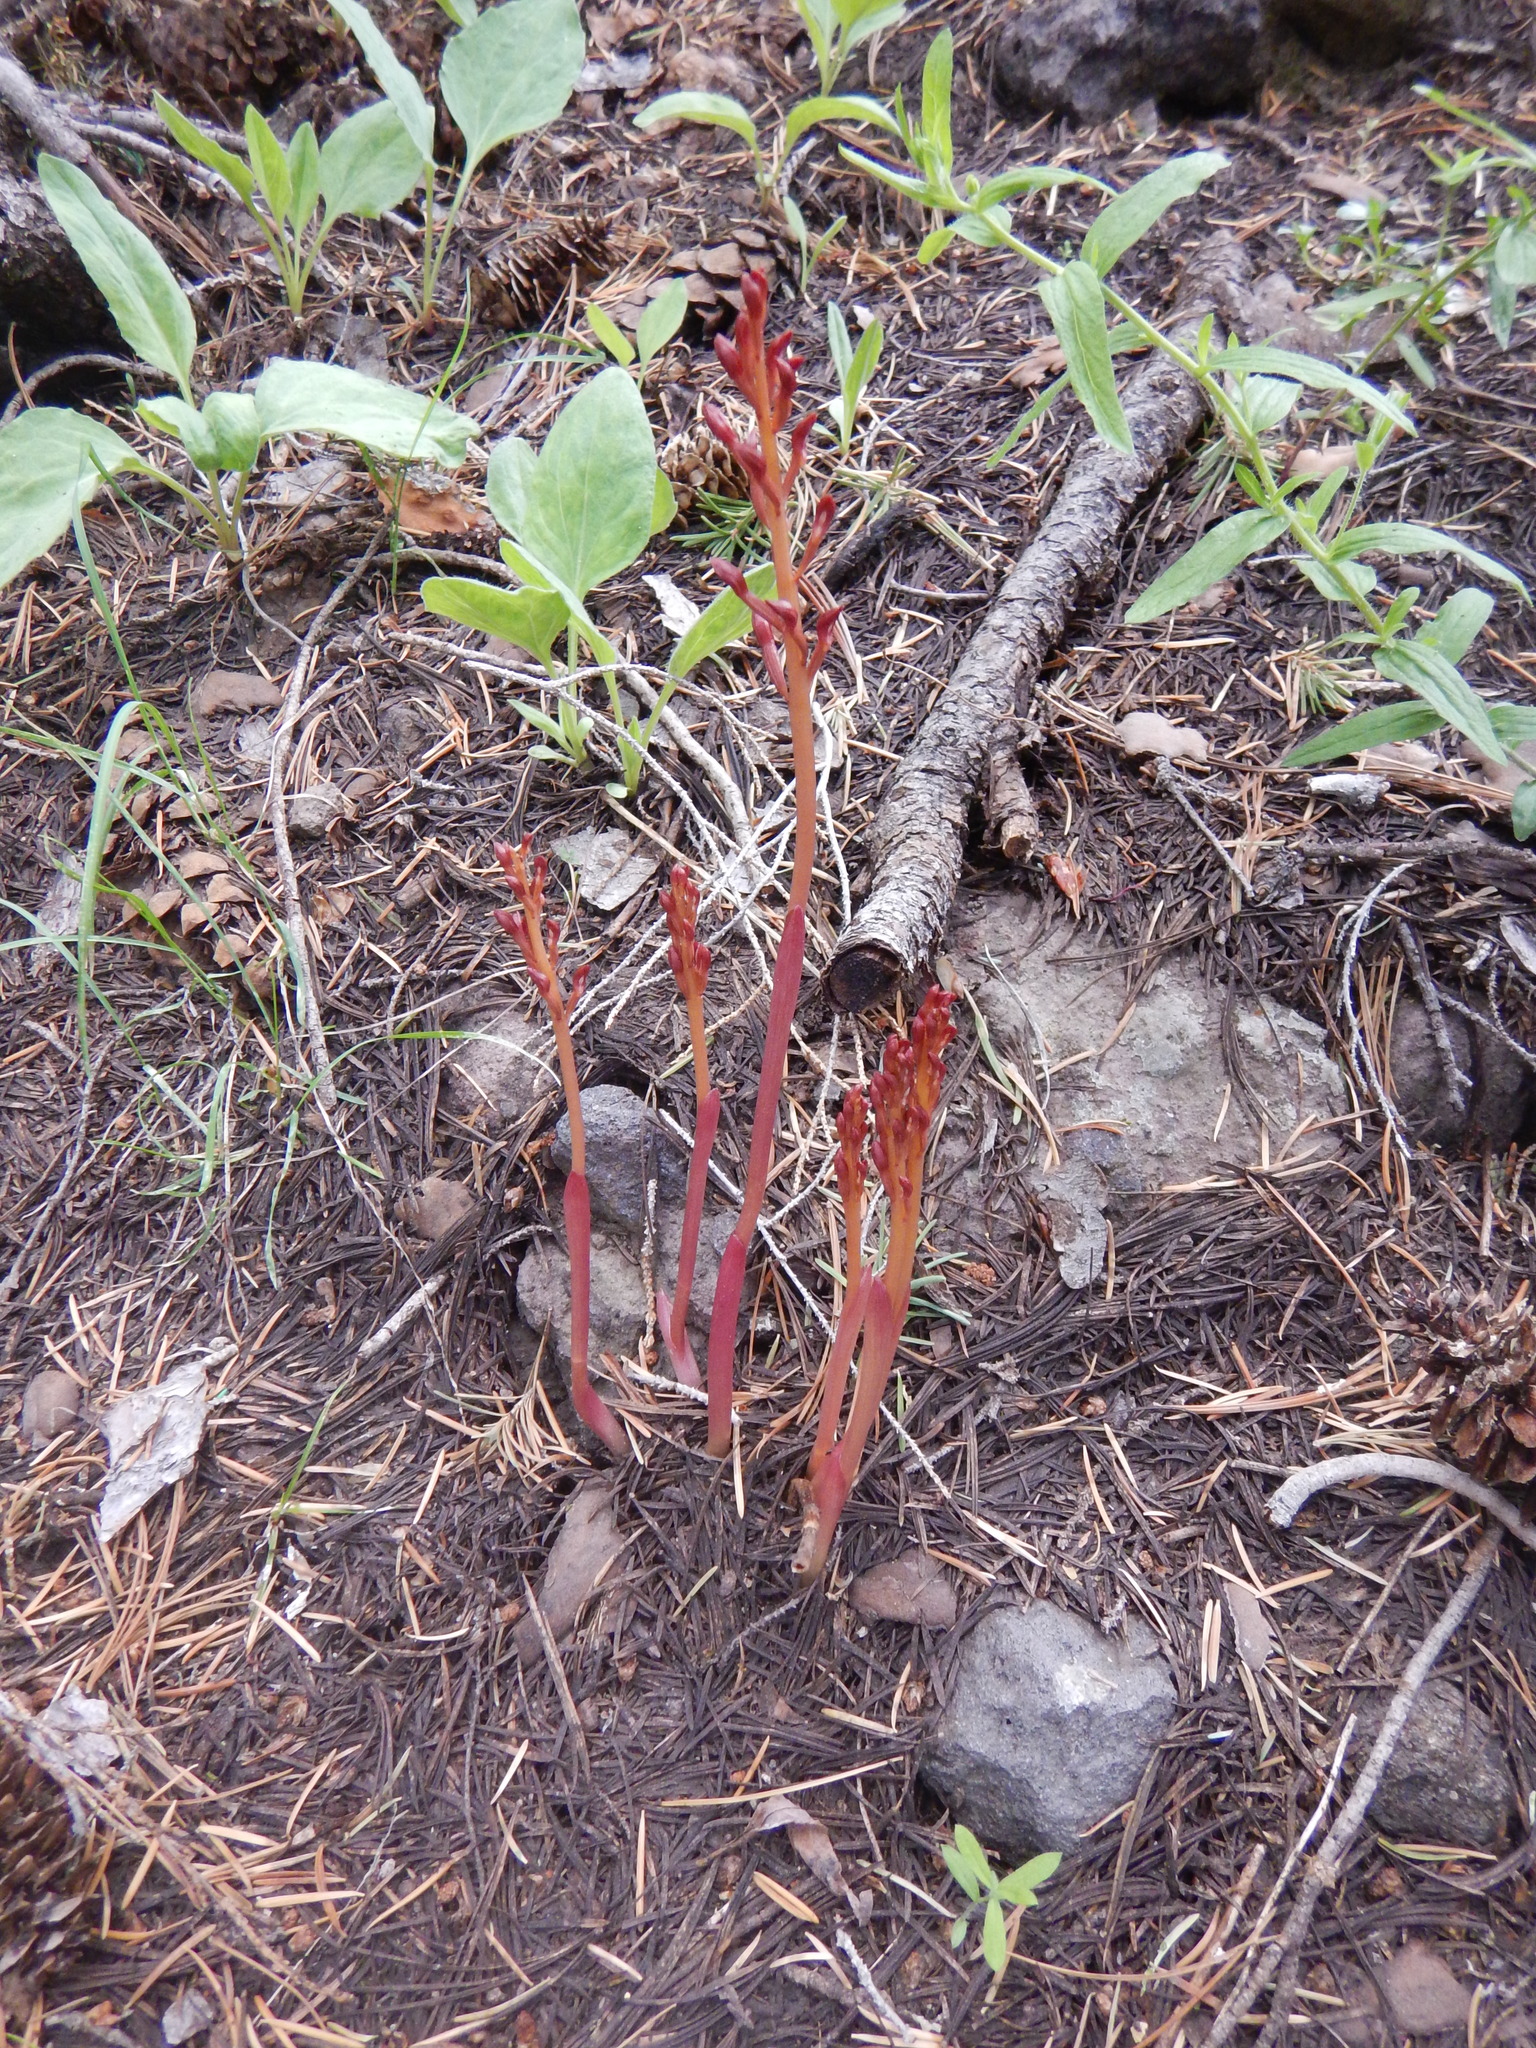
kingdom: Plantae
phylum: Tracheophyta
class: Liliopsida
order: Asparagales
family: Orchidaceae
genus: Corallorhiza
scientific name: Corallorhiza maculata
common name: Spotted coralroot
